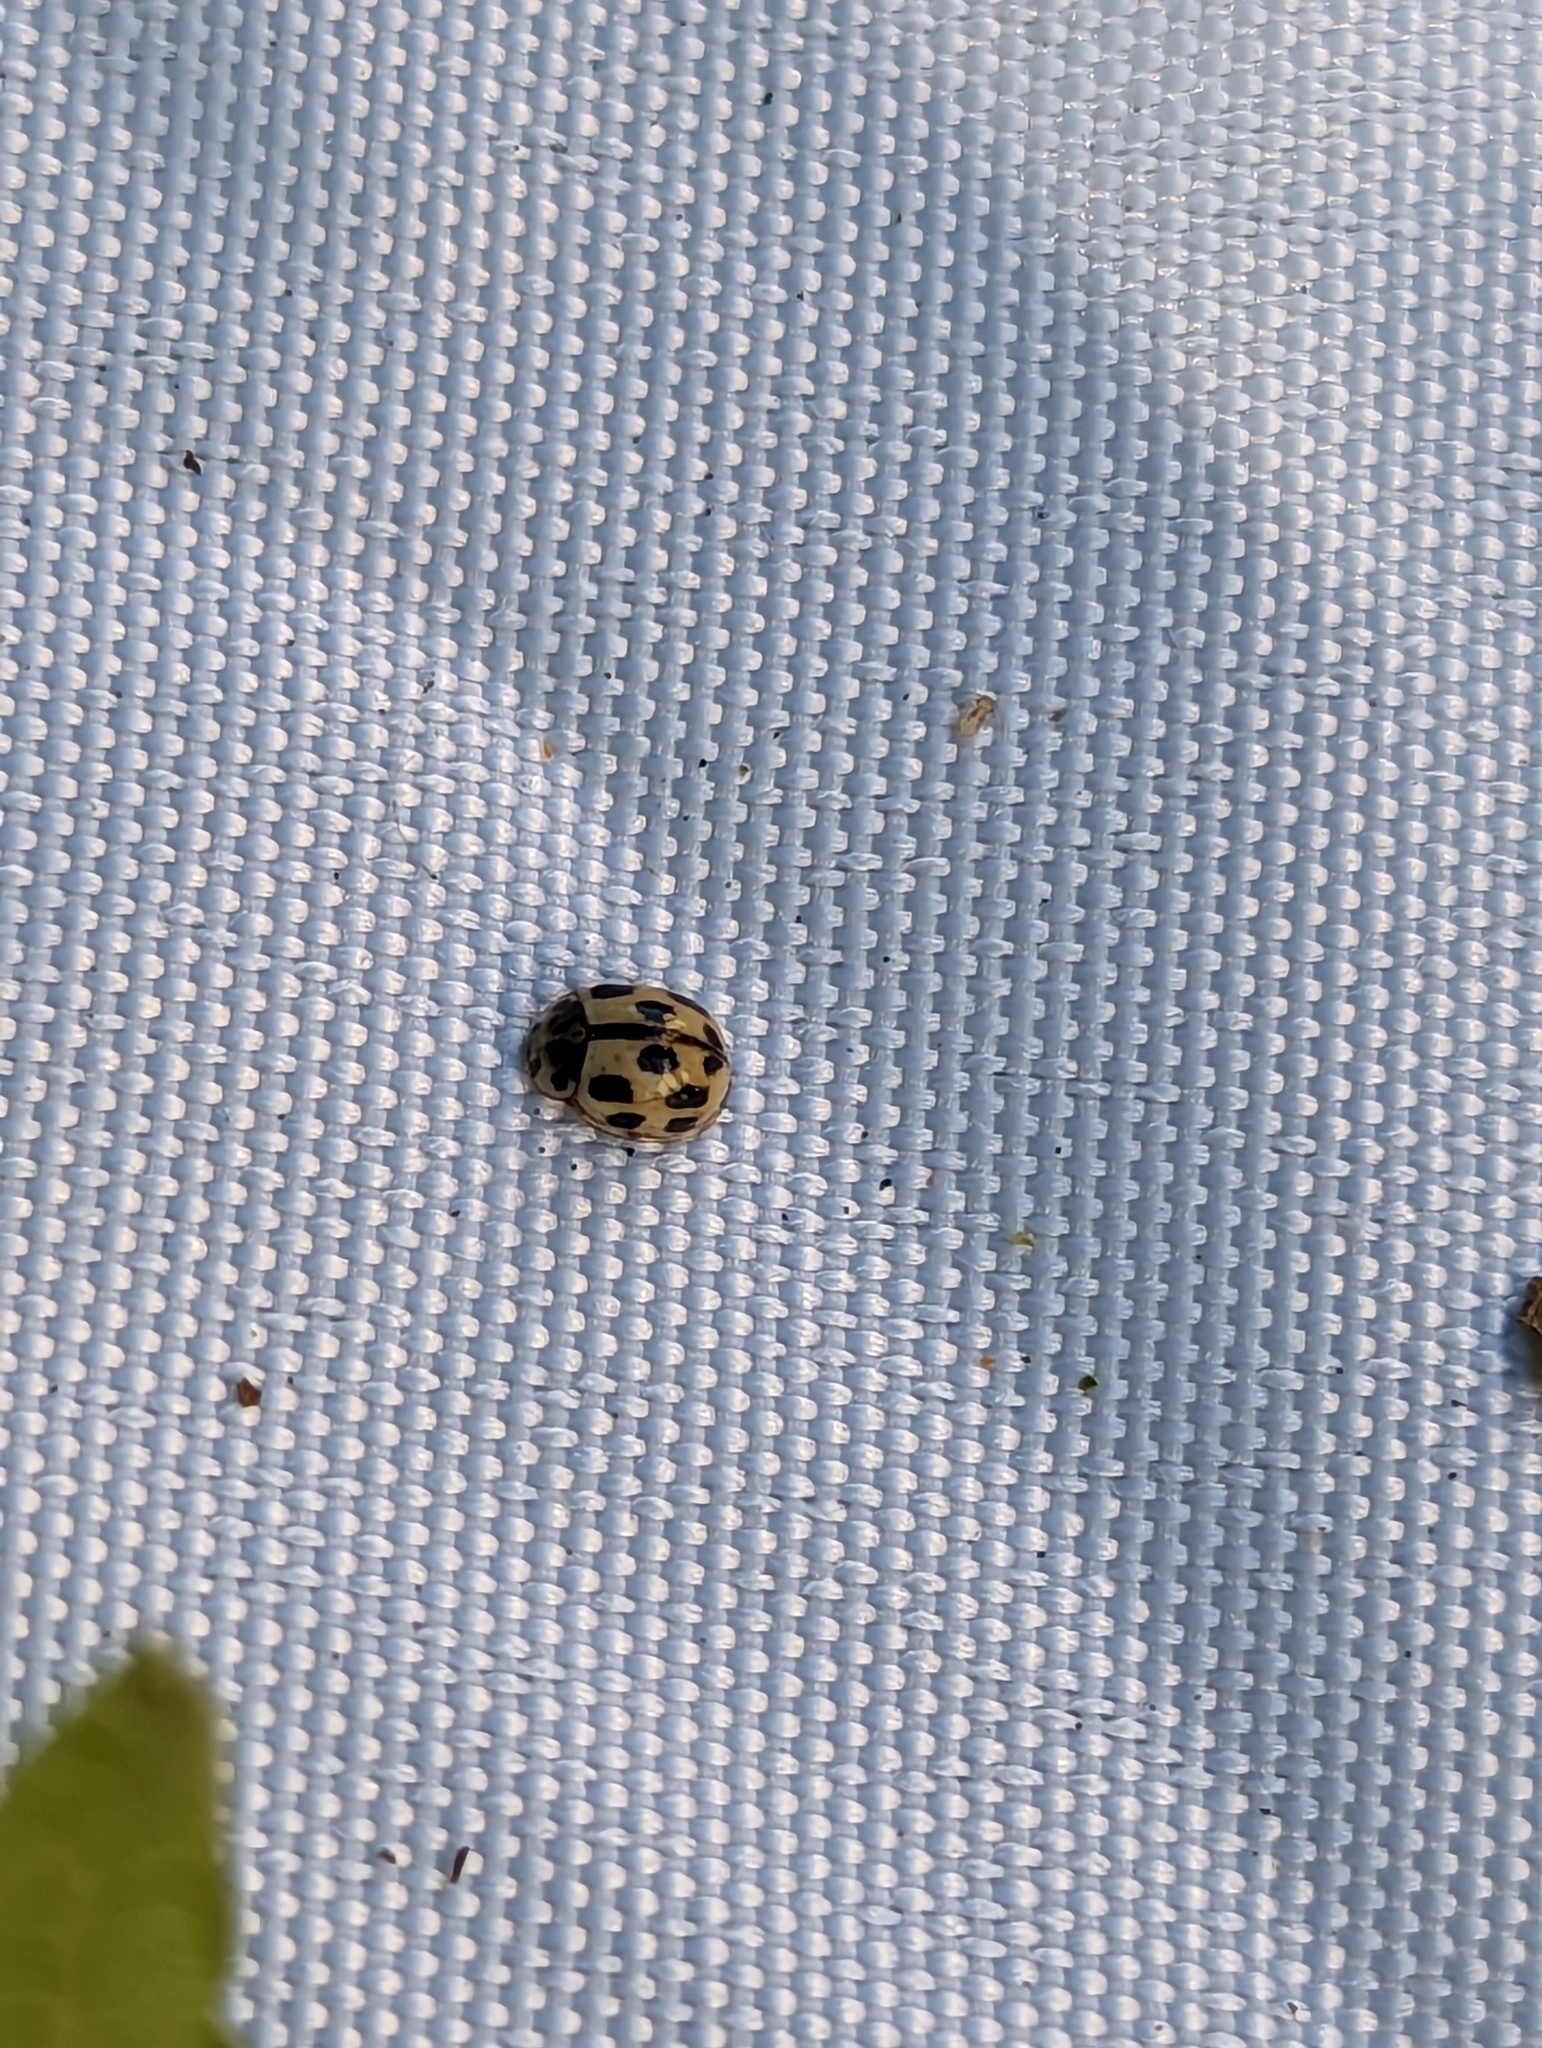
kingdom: Animalia
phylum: Arthropoda
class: Insecta
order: Coleoptera
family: Coccinellidae
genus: Propylaea
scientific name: Propylaea quatuordecimpunctata
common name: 14-spotted ladybird beetle
